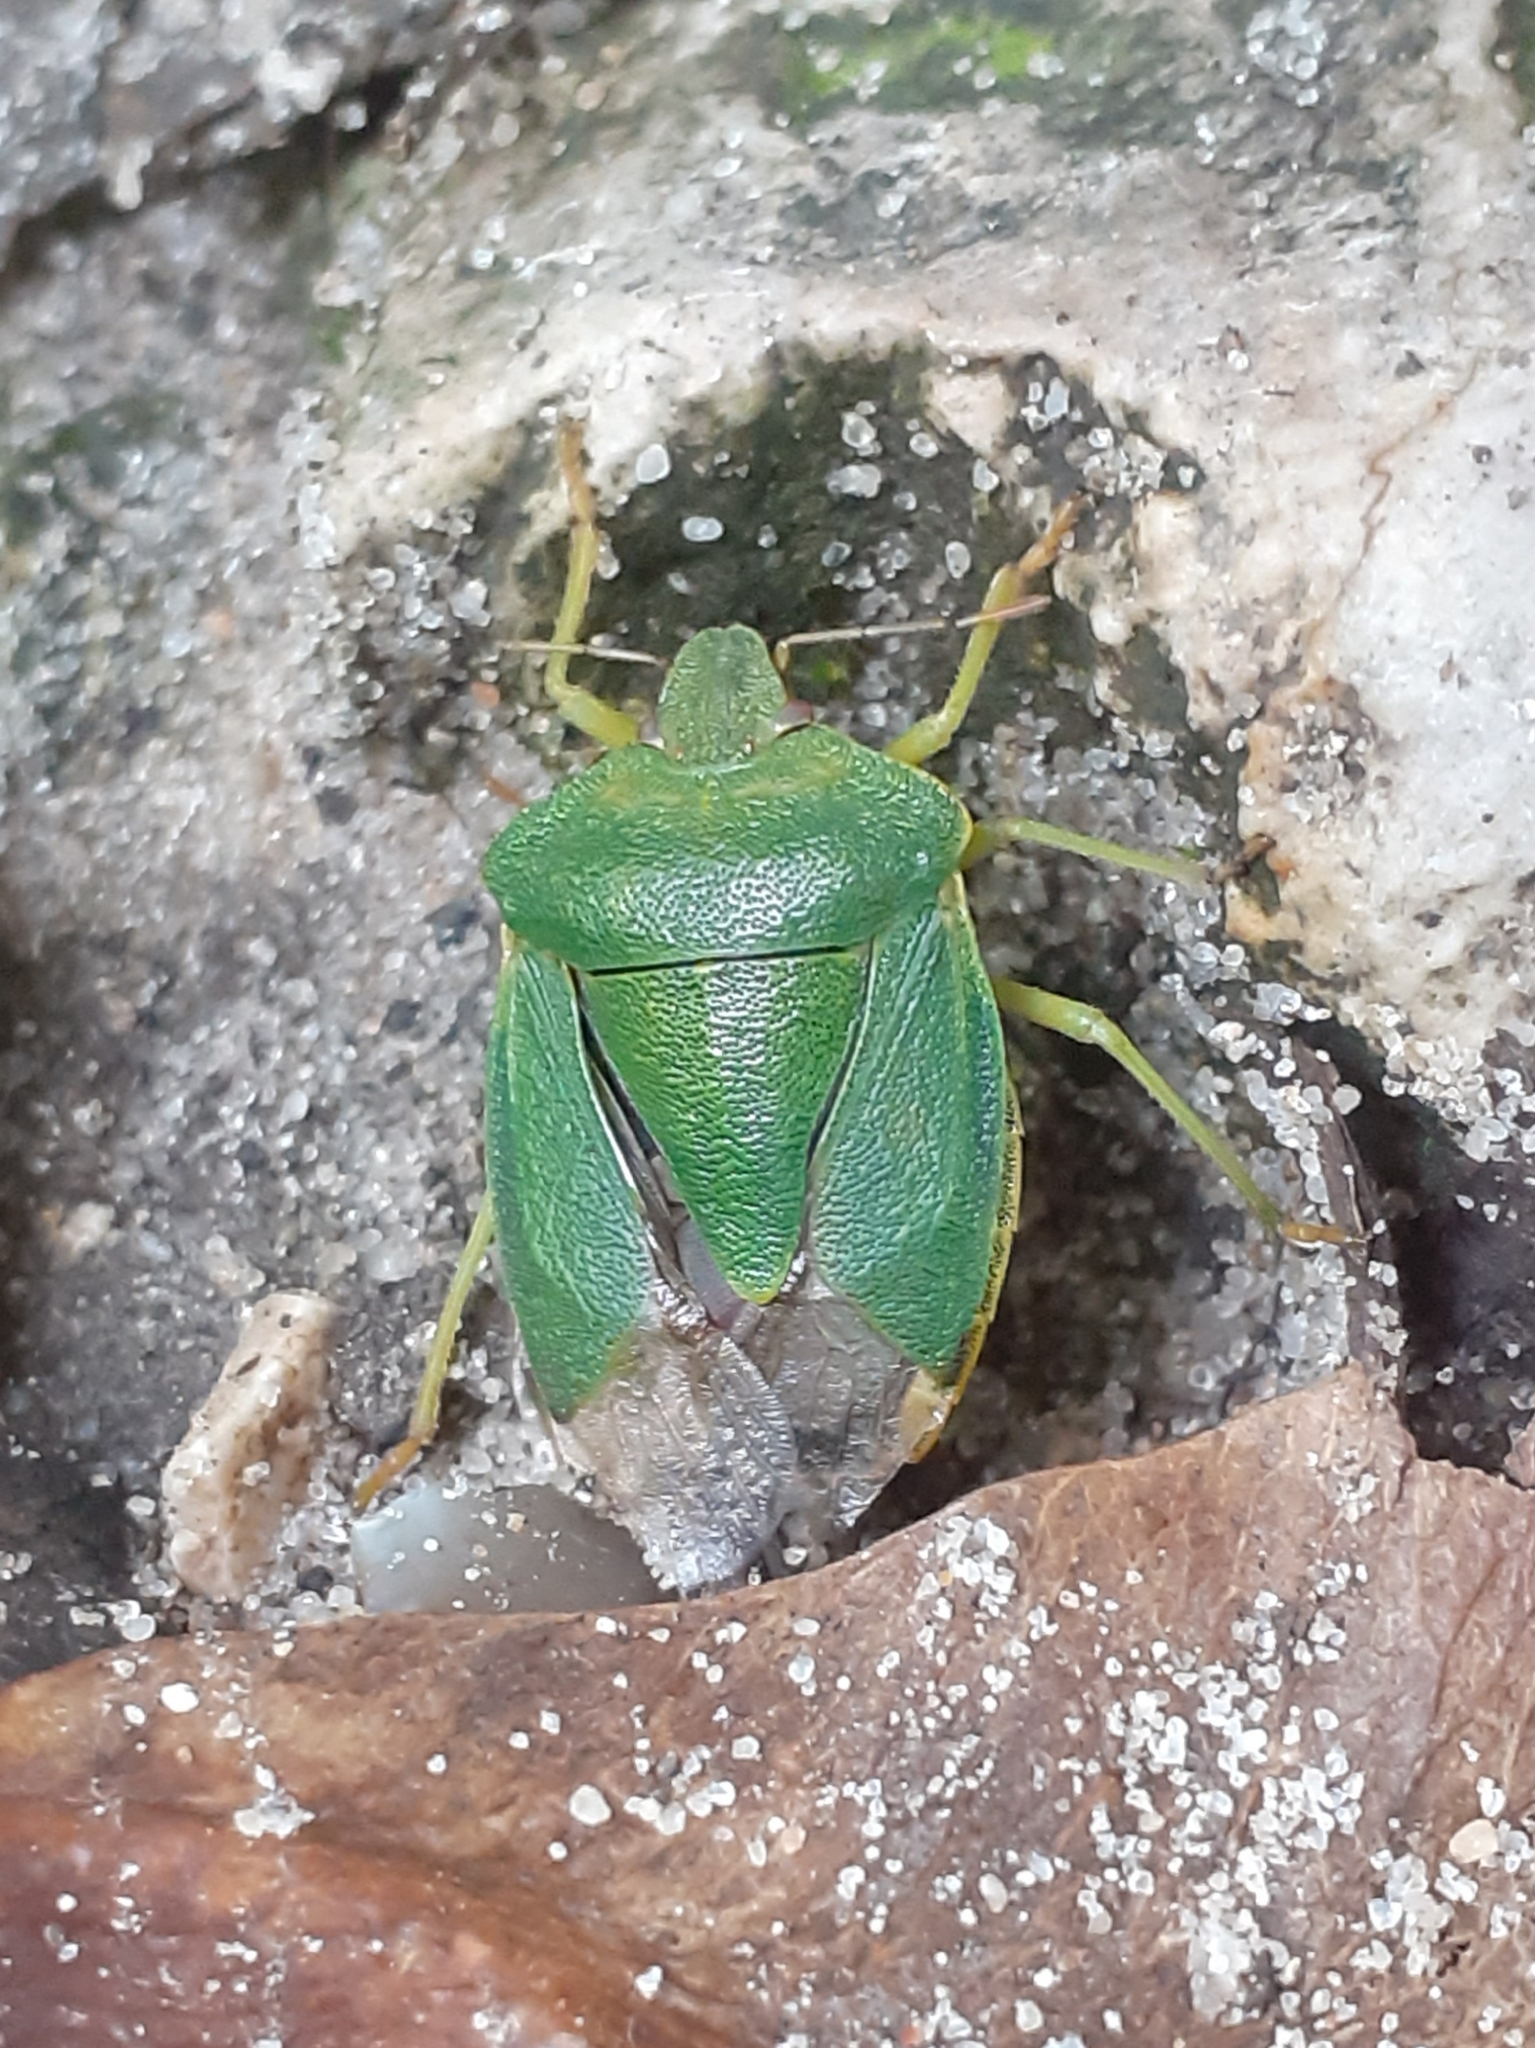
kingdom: Animalia
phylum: Arthropoda
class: Insecta
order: Hemiptera
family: Pentatomidae
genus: Palomena
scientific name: Palomena prasina
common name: Green shieldbug
